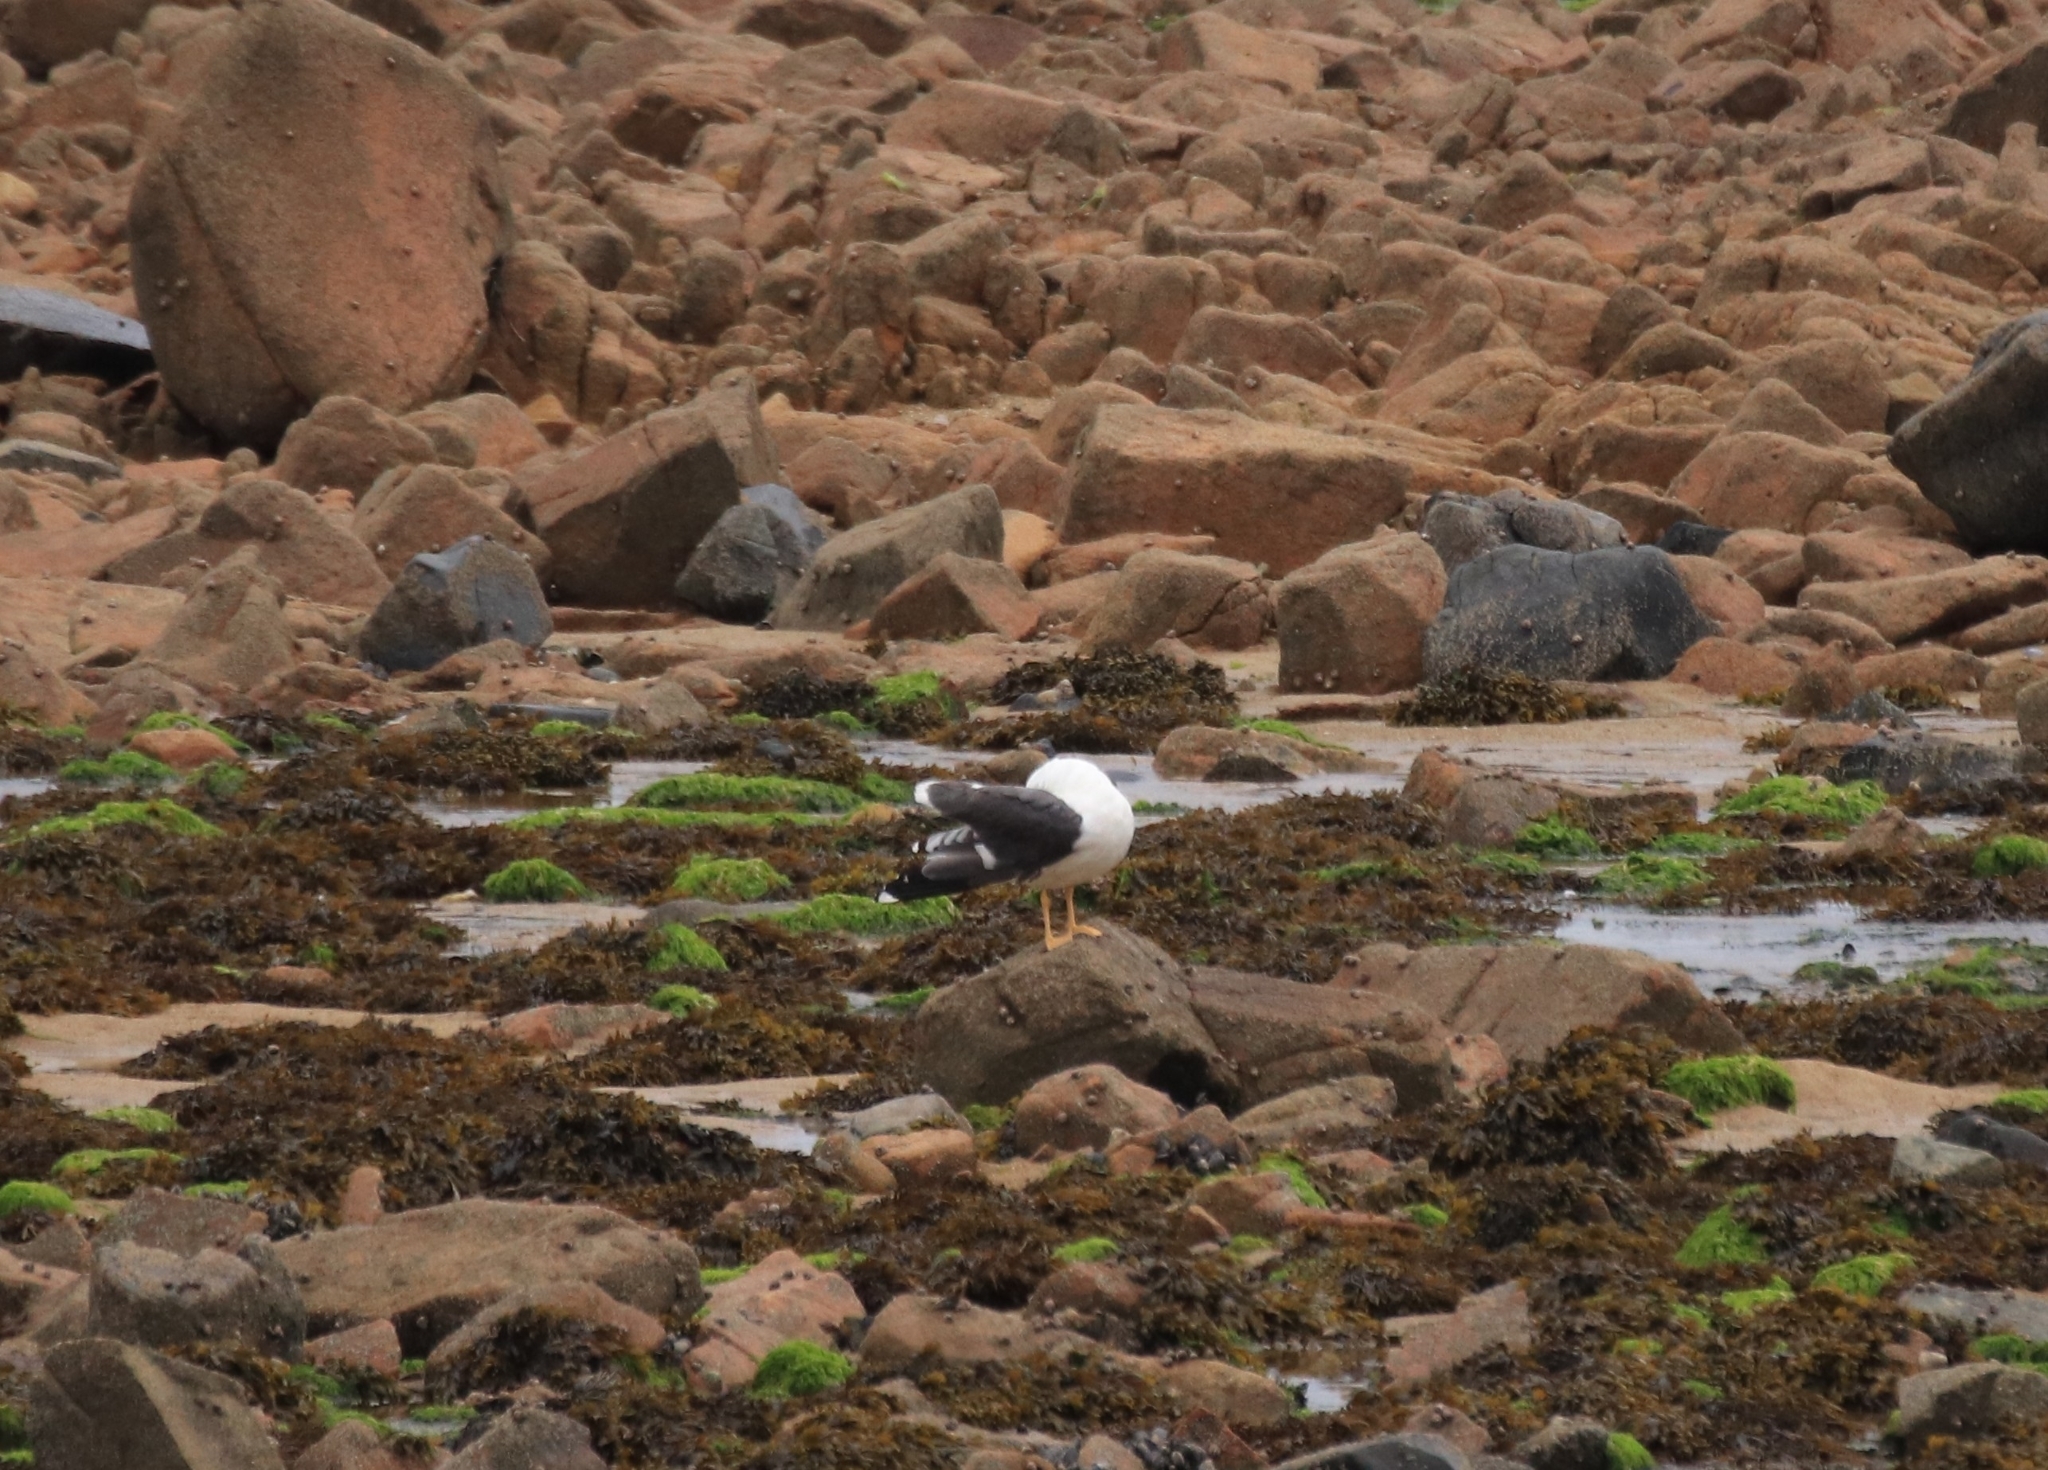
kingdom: Animalia
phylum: Chordata
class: Aves
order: Charadriiformes
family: Laridae
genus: Larus
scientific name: Larus fuscus
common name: Lesser black-backed gull
